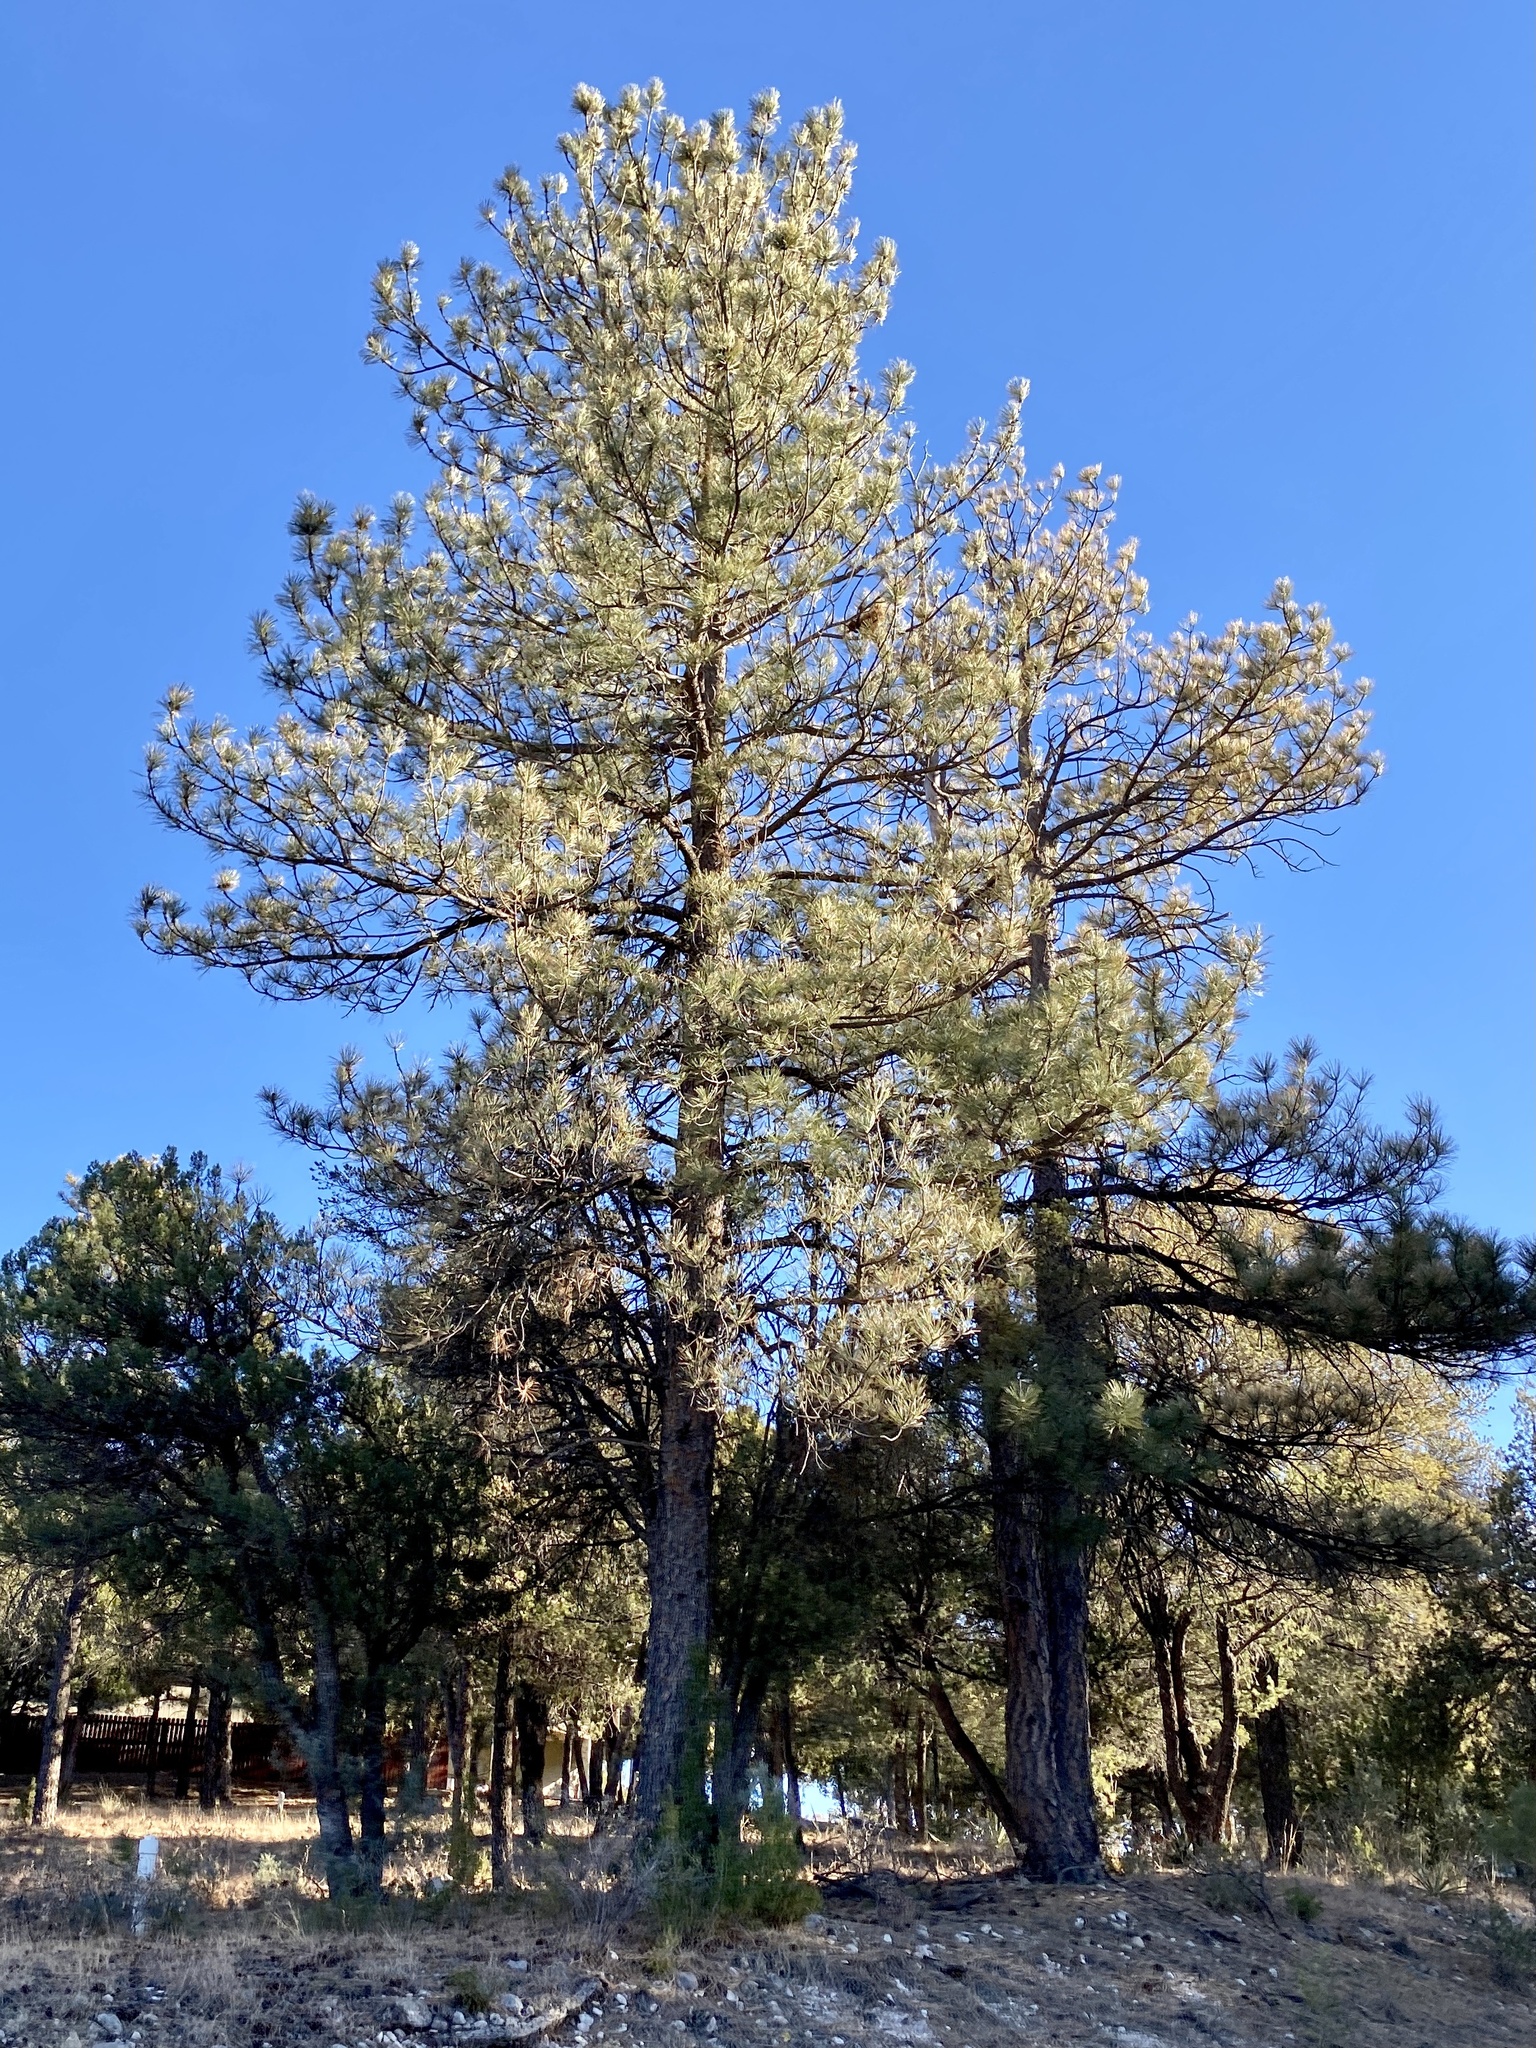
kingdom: Plantae
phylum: Tracheophyta
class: Pinopsida
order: Pinales
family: Pinaceae
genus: Pinus
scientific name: Pinus ponderosa
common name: Western yellow-pine
